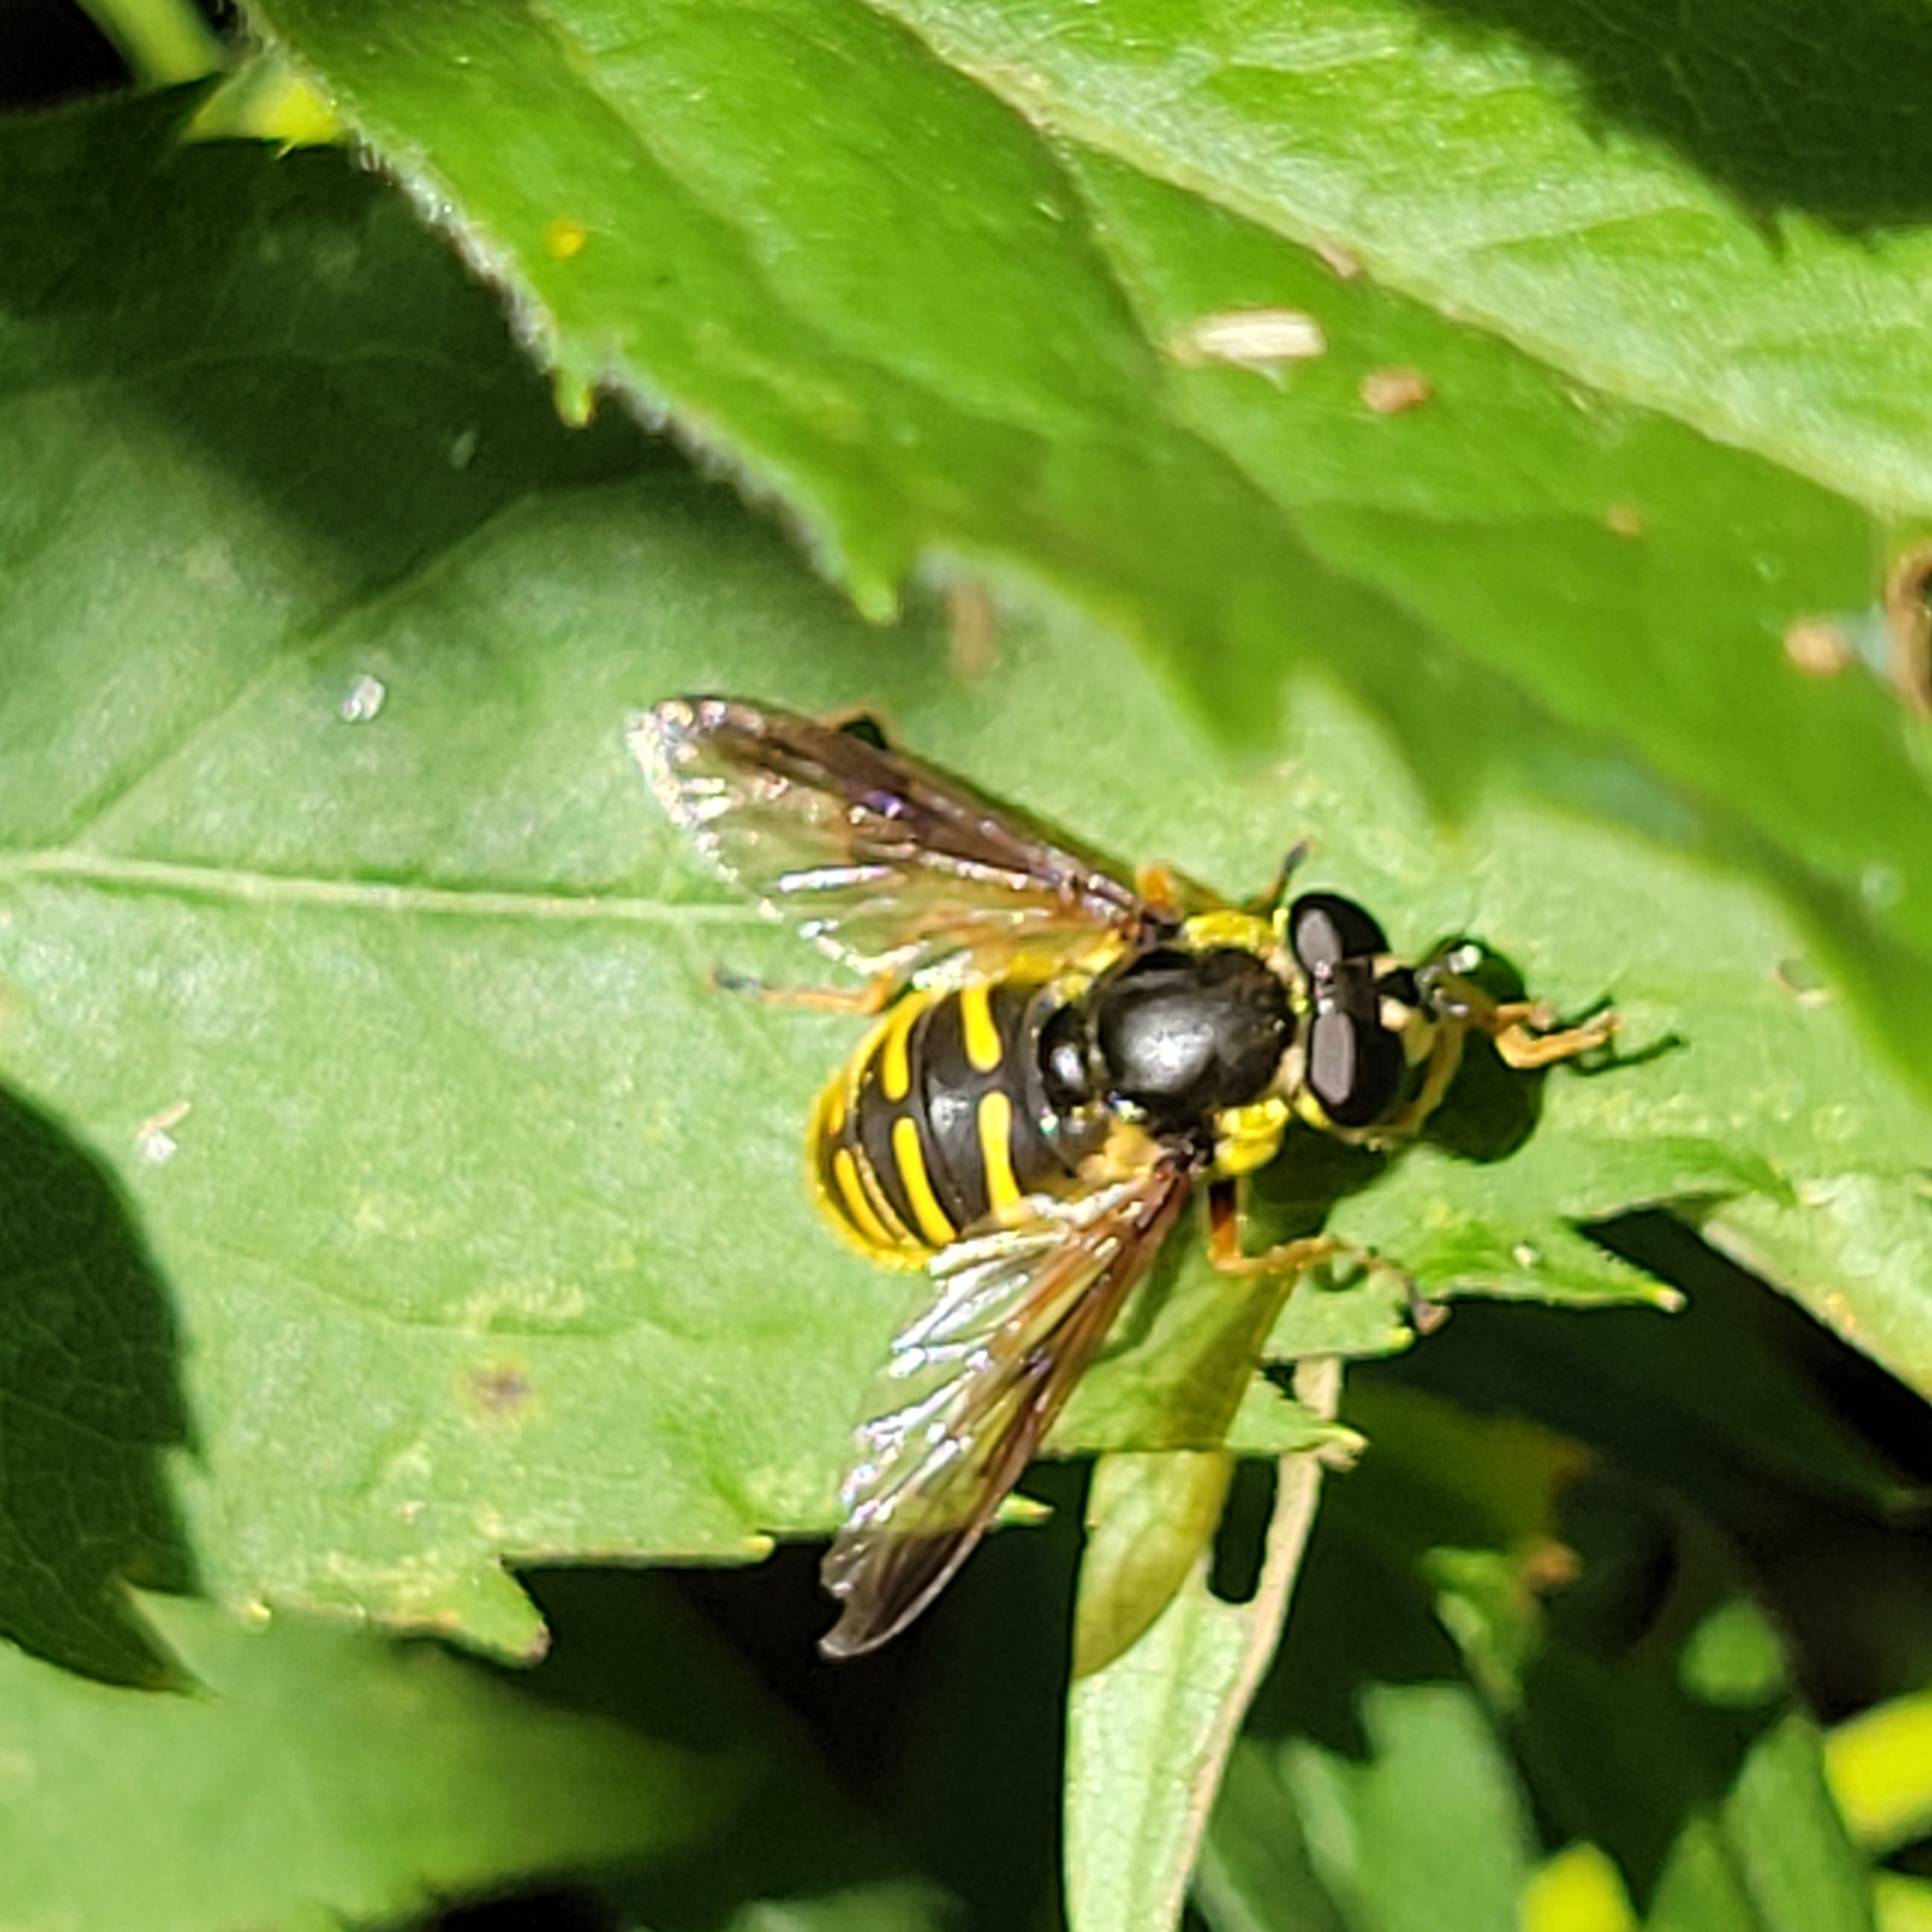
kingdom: Animalia
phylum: Arthropoda
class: Insecta
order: Diptera
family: Syrphidae
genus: Sericomyia
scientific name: Sericomyia chrysotoxoides
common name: Oblique-banded pond fly
